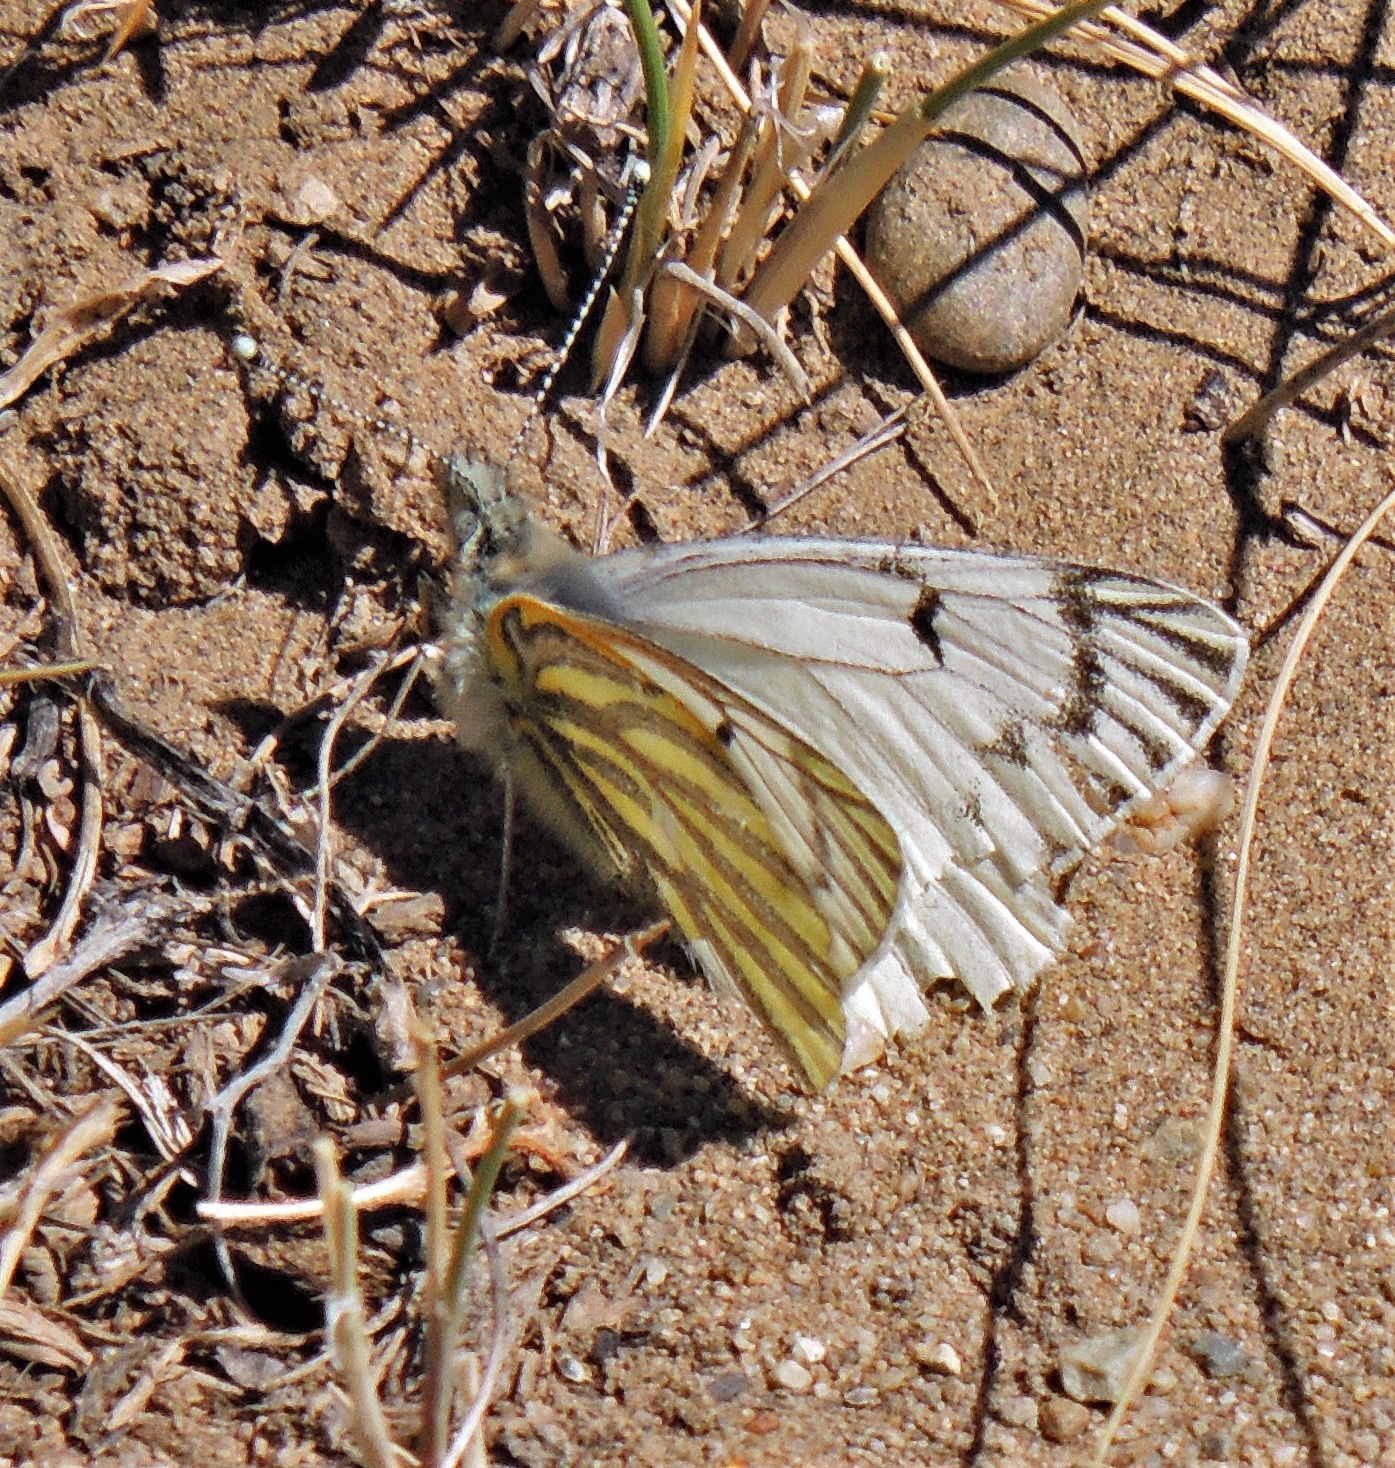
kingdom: Animalia
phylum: Arthropoda
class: Insecta
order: Lepidoptera
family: Pieridae
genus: Tatochila
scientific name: Tatochila mercedis
